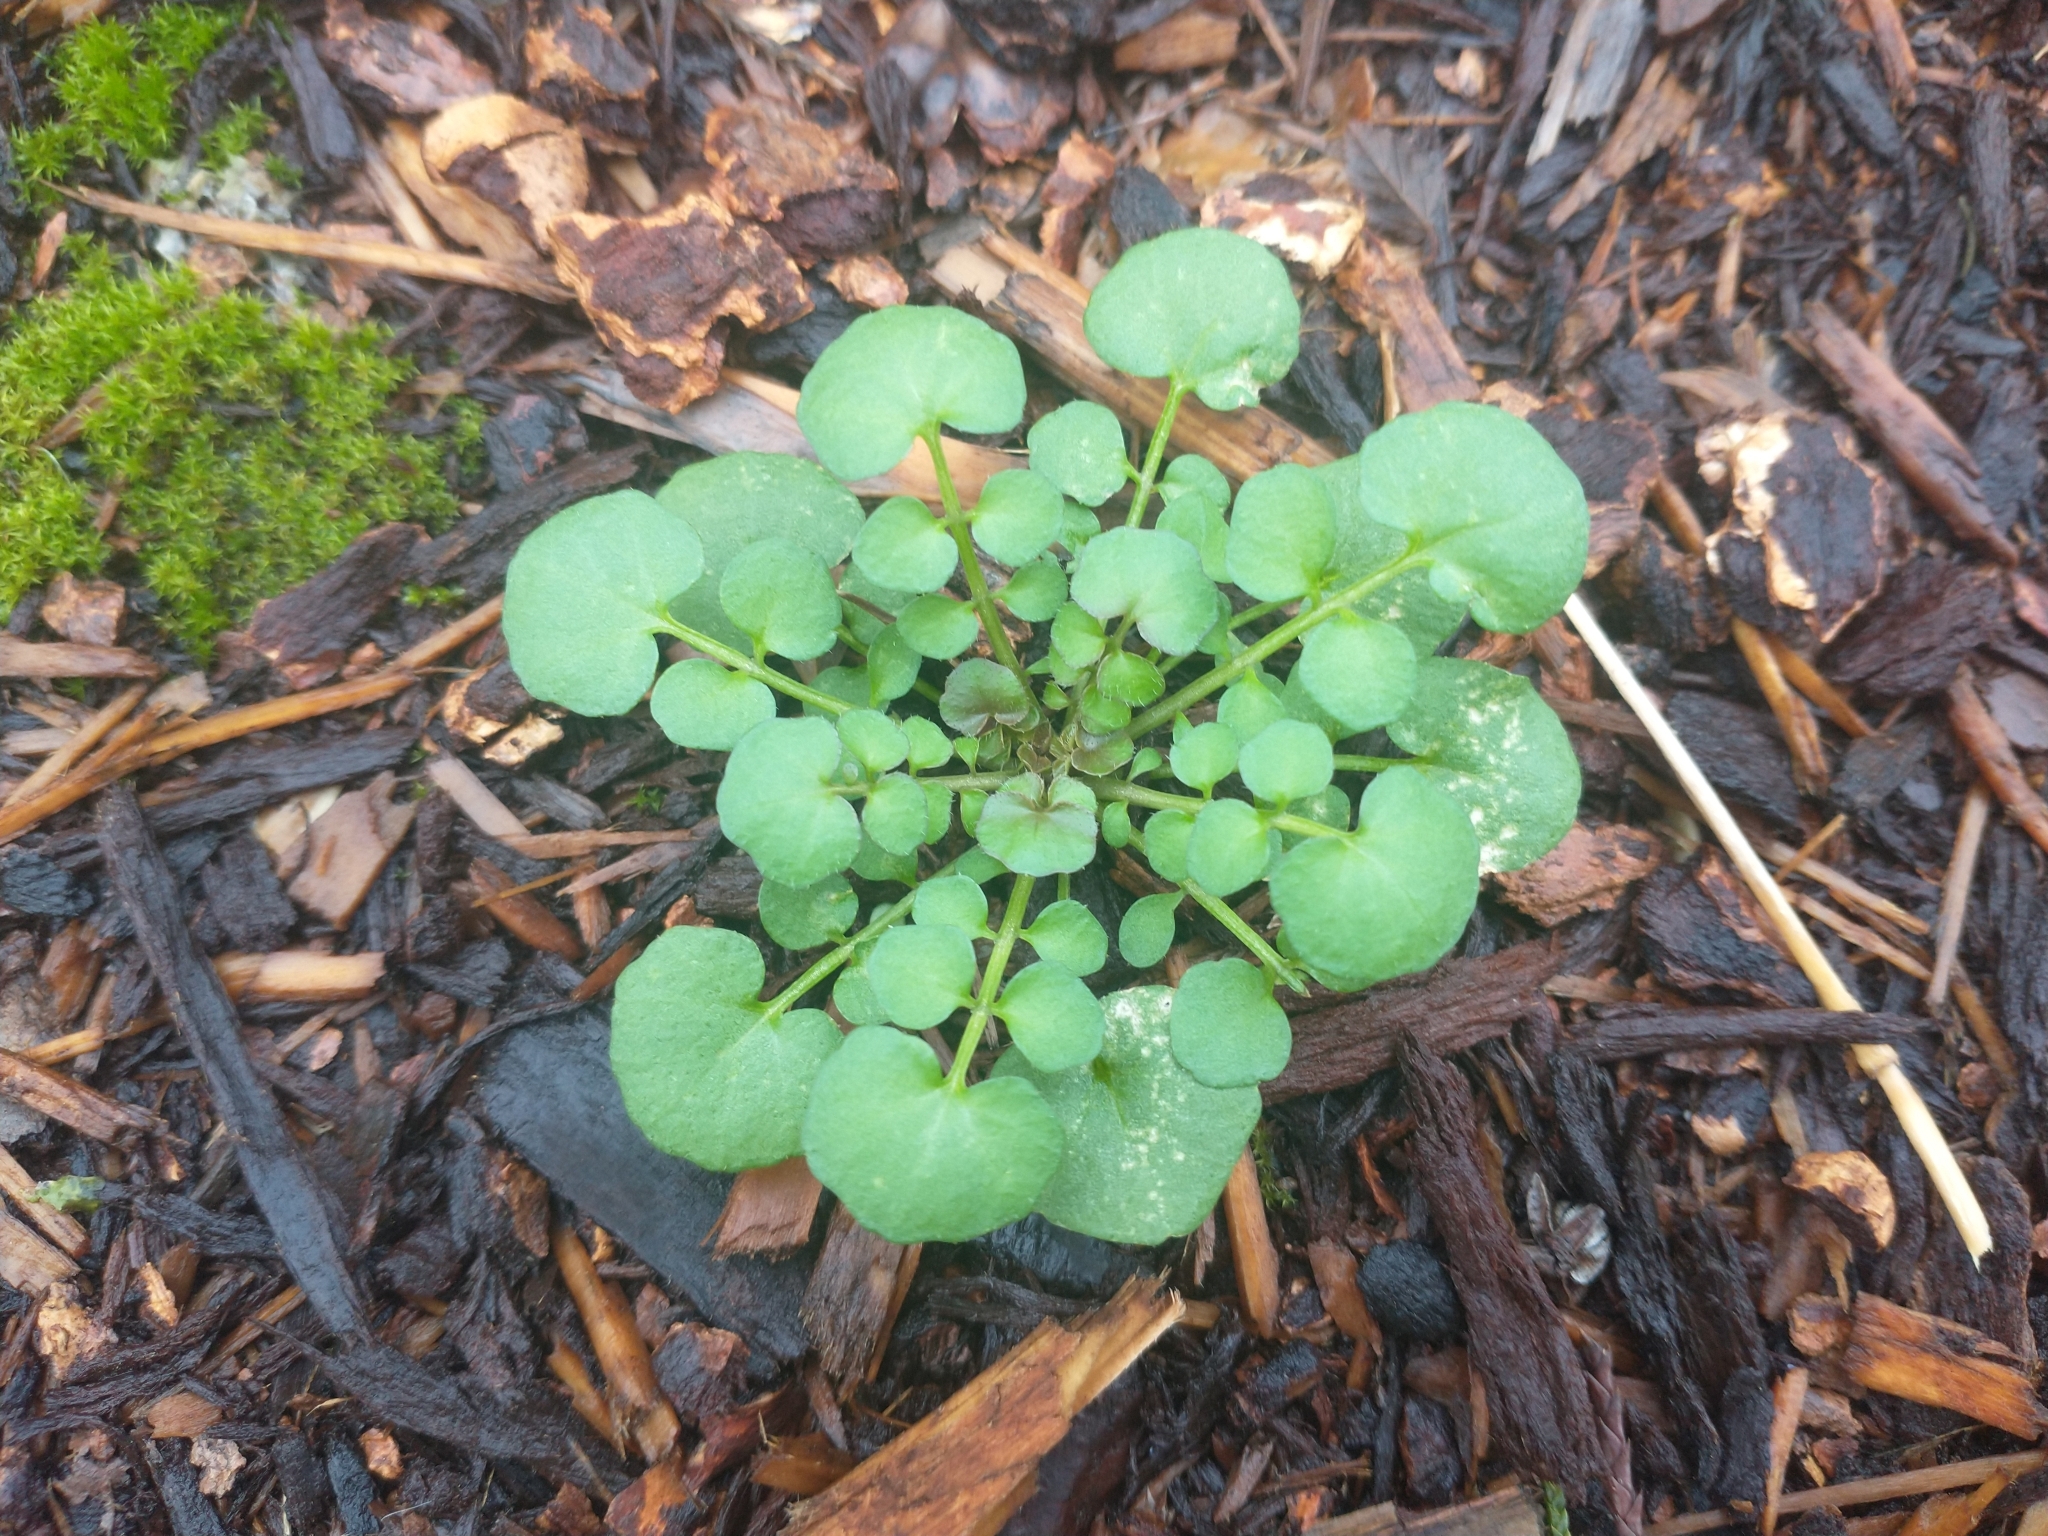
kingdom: Plantae
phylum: Tracheophyta
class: Magnoliopsida
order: Brassicales
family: Brassicaceae
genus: Cardamine
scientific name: Cardamine hirsuta
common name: Hairy bittercress
